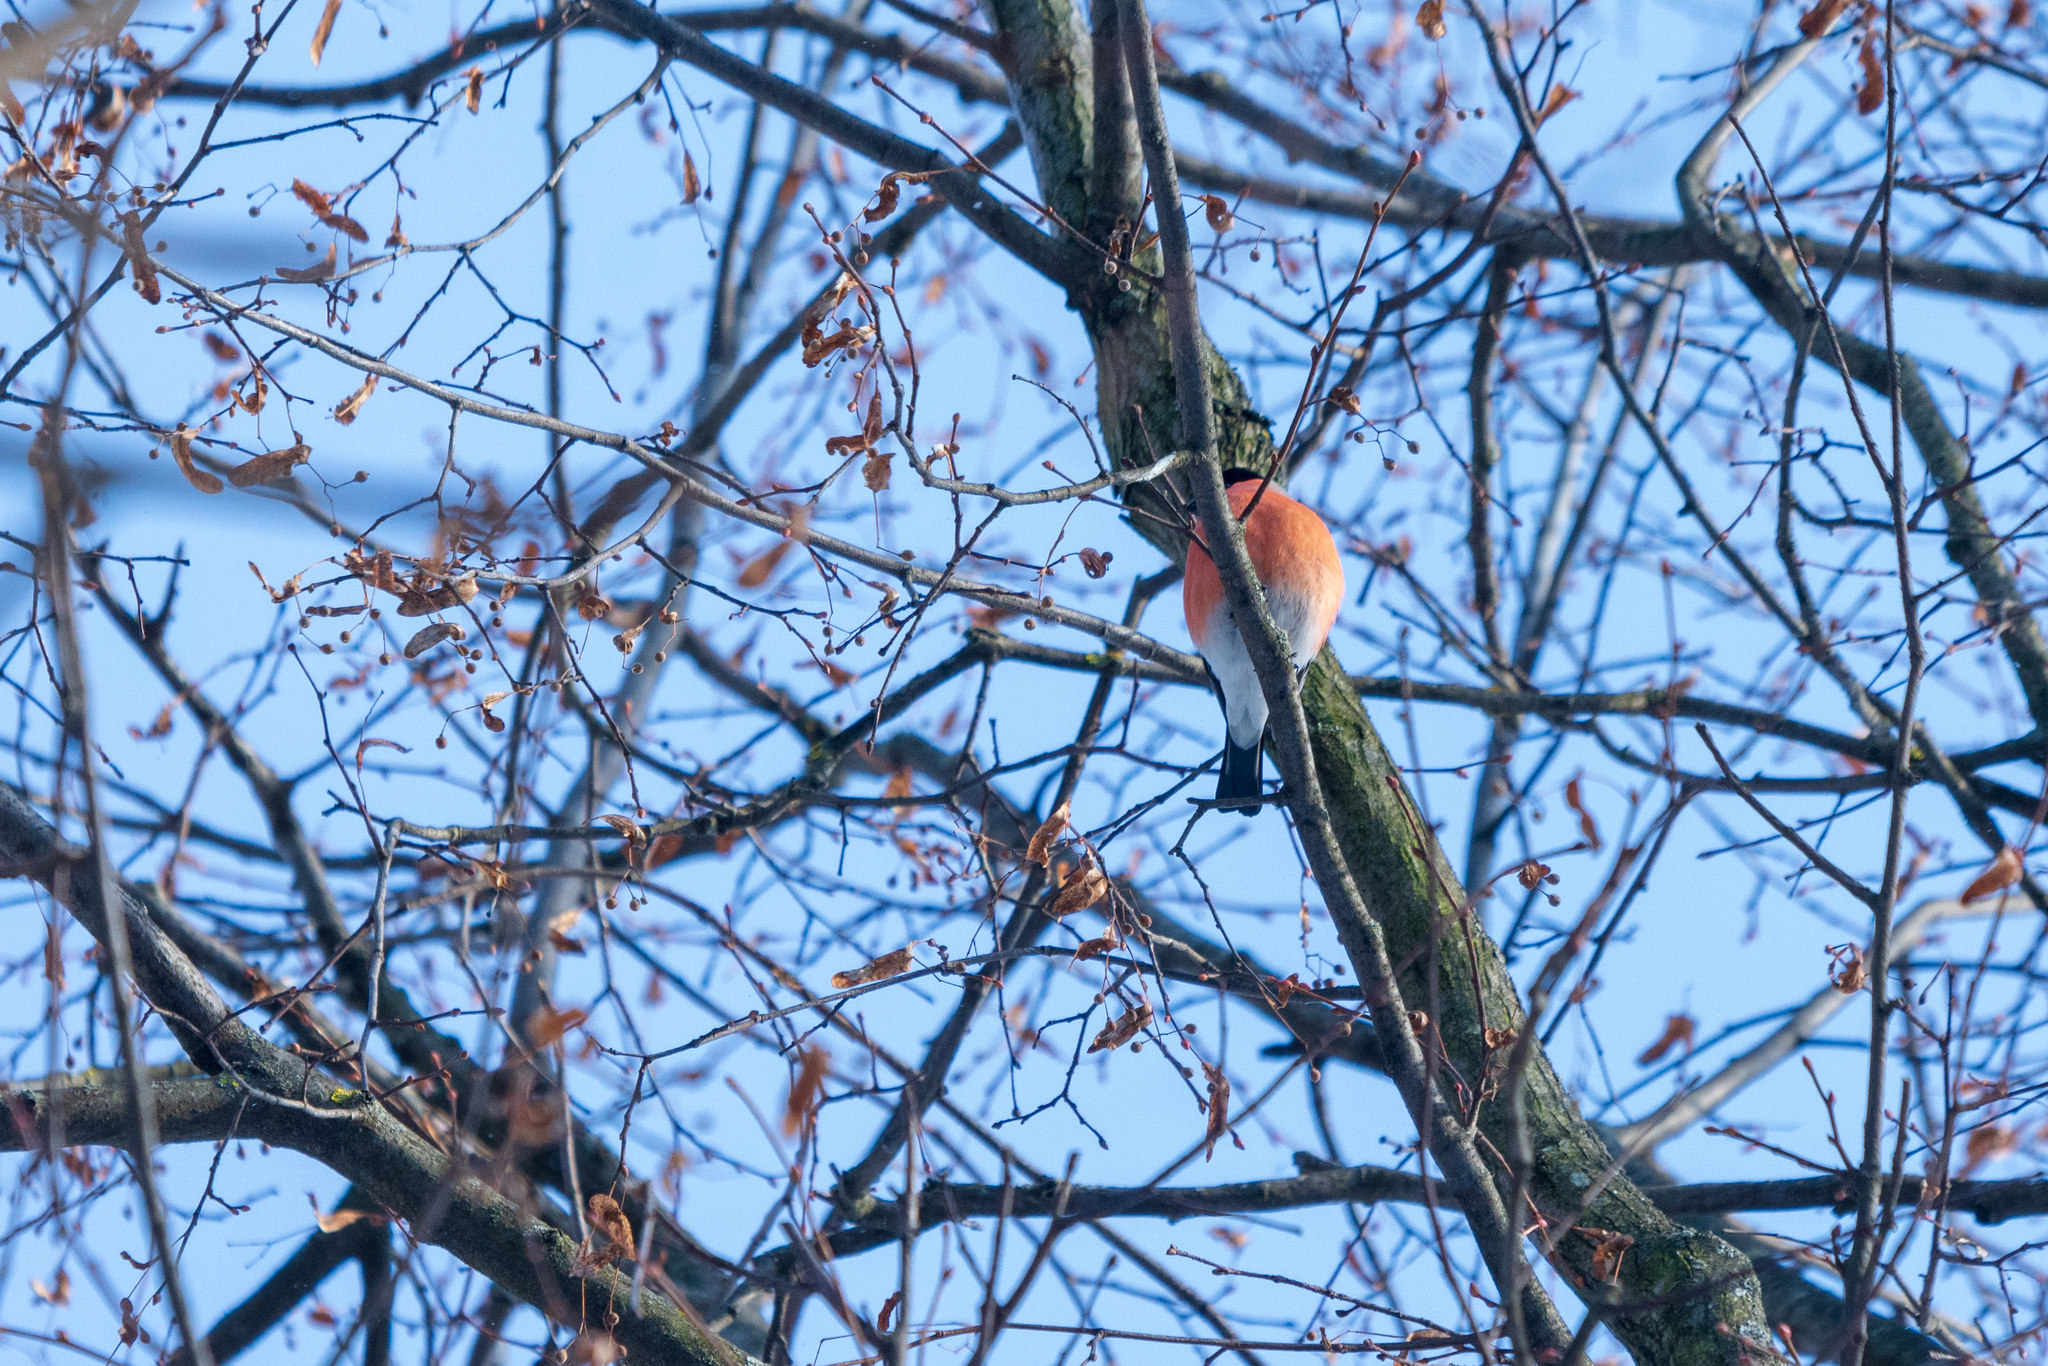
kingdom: Animalia
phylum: Chordata
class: Aves
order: Passeriformes
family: Fringillidae
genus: Pyrrhula
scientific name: Pyrrhula pyrrhula
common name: Eurasian bullfinch
